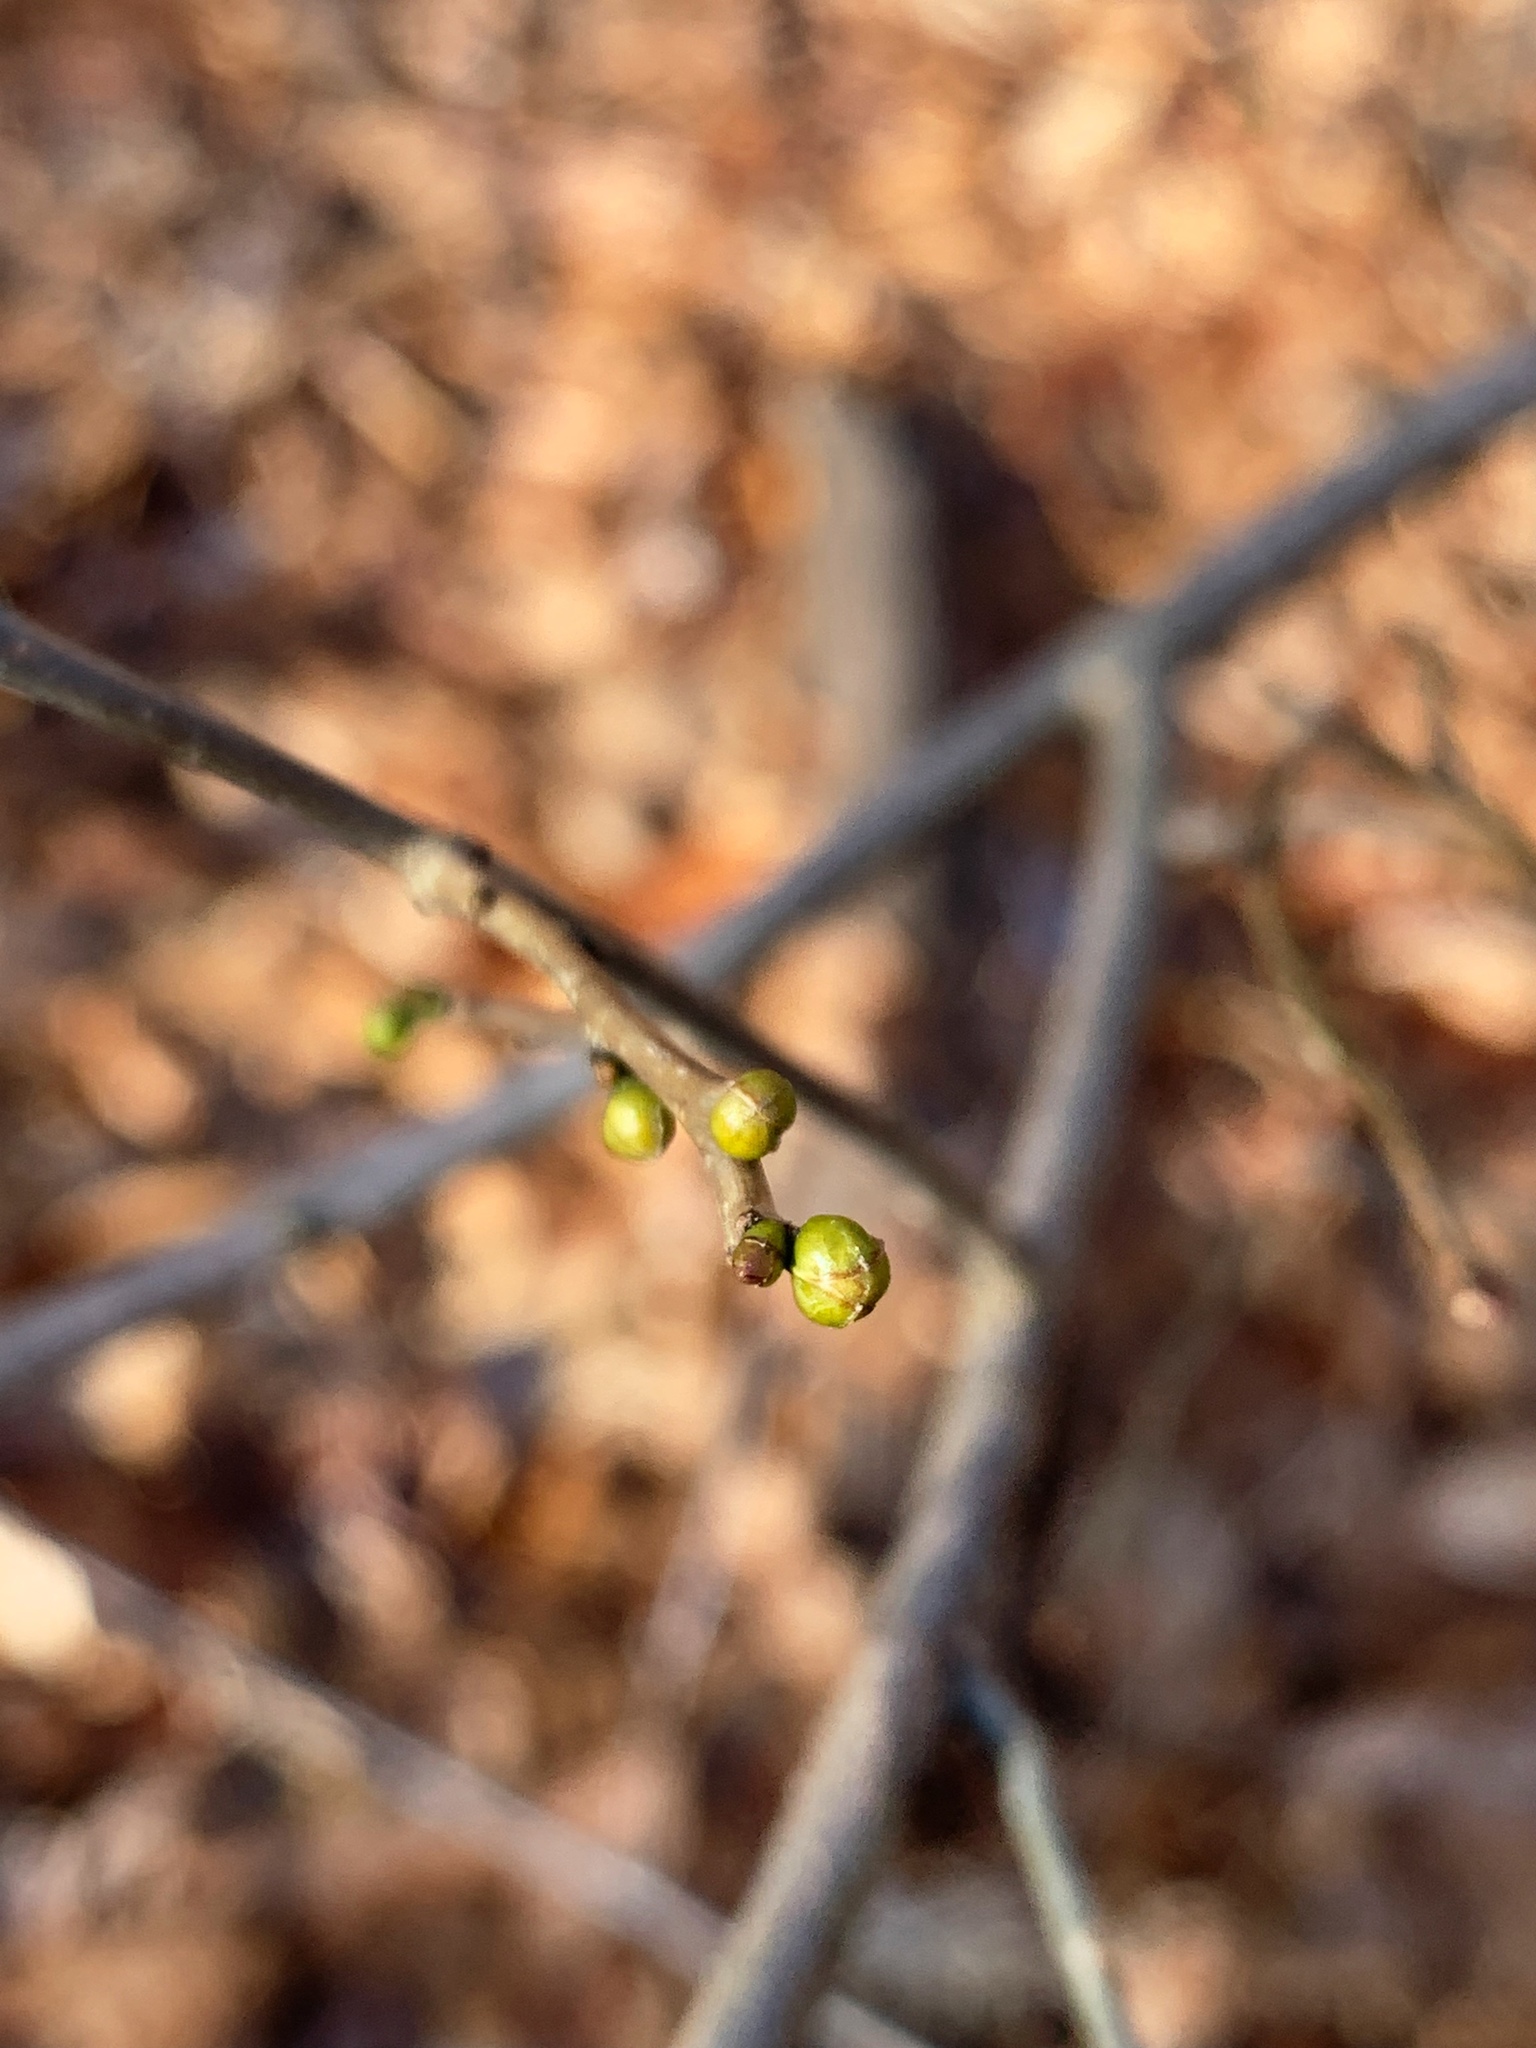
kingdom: Plantae
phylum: Tracheophyta
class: Magnoliopsida
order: Laurales
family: Lauraceae
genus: Lindera
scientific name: Lindera benzoin
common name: Spicebush
